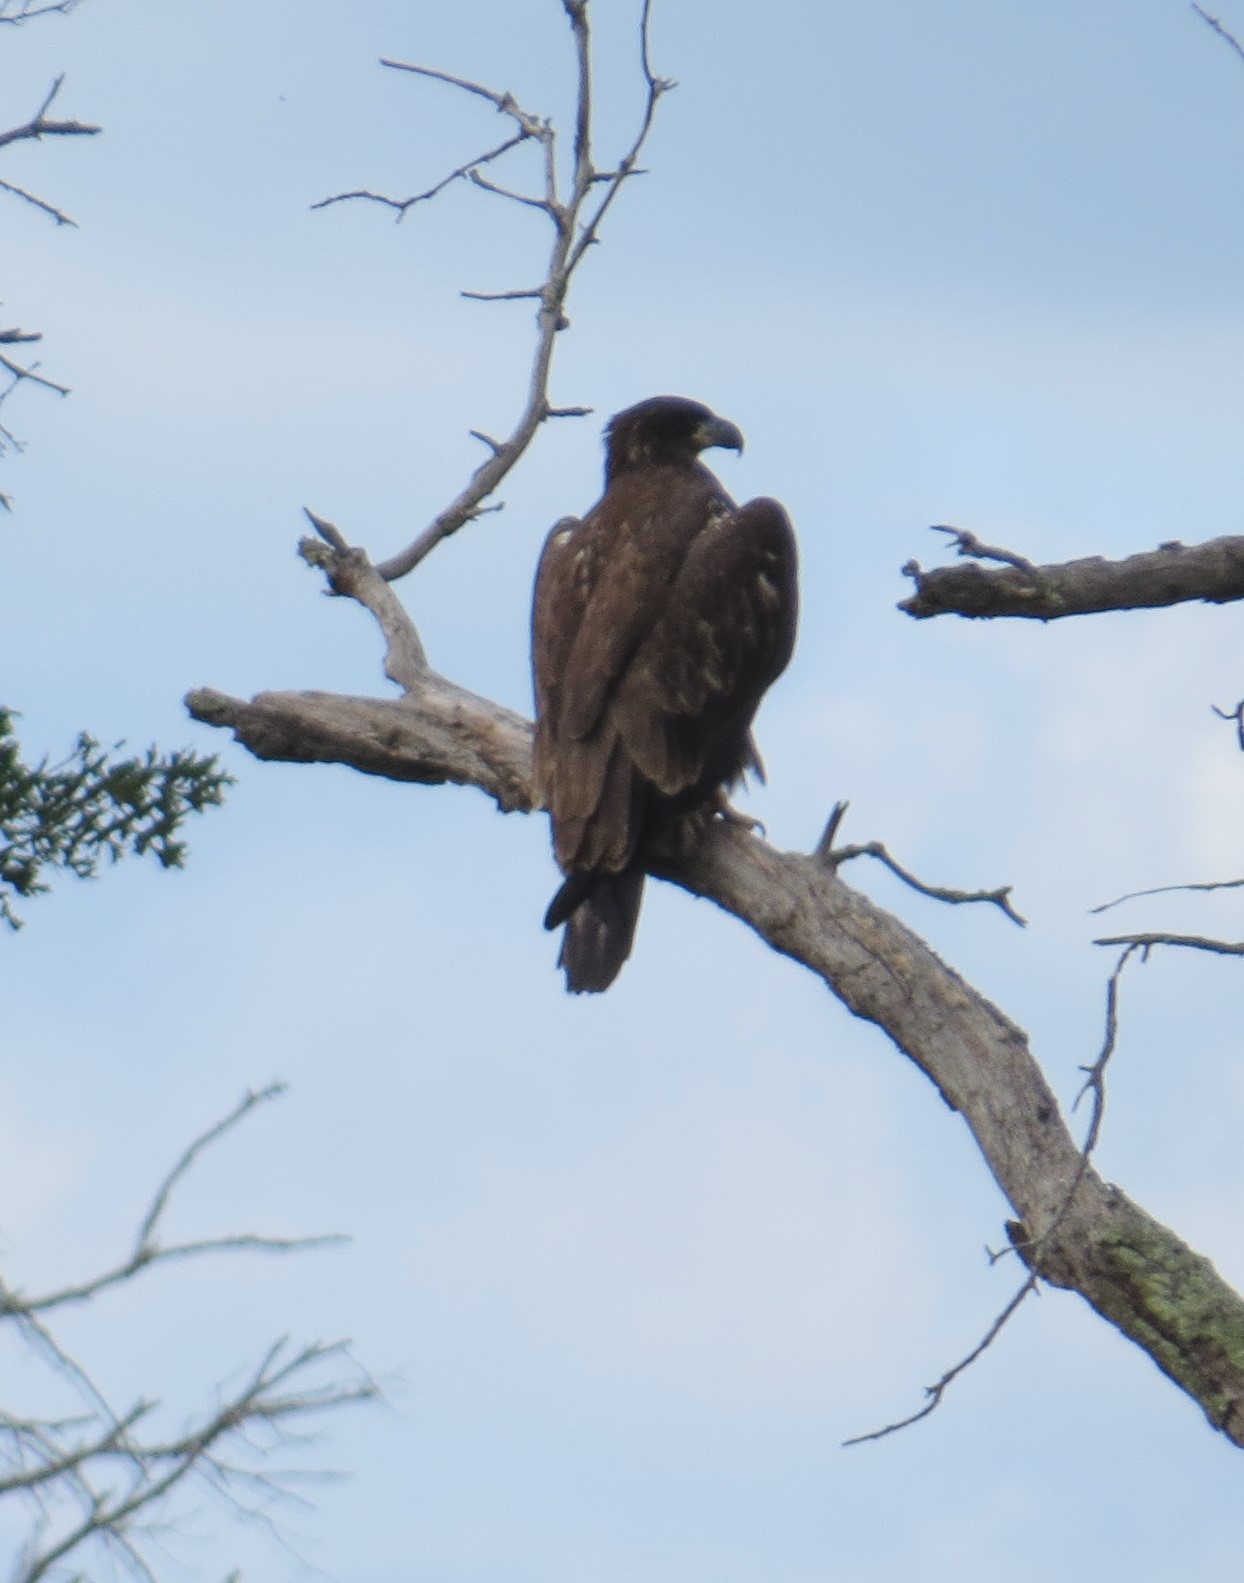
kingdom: Animalia
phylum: Chordata
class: Aves
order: Accipitriformes
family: Accipitridae
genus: Haliaeetus
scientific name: Haliaeetus leucocephalus
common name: Bald eagle
